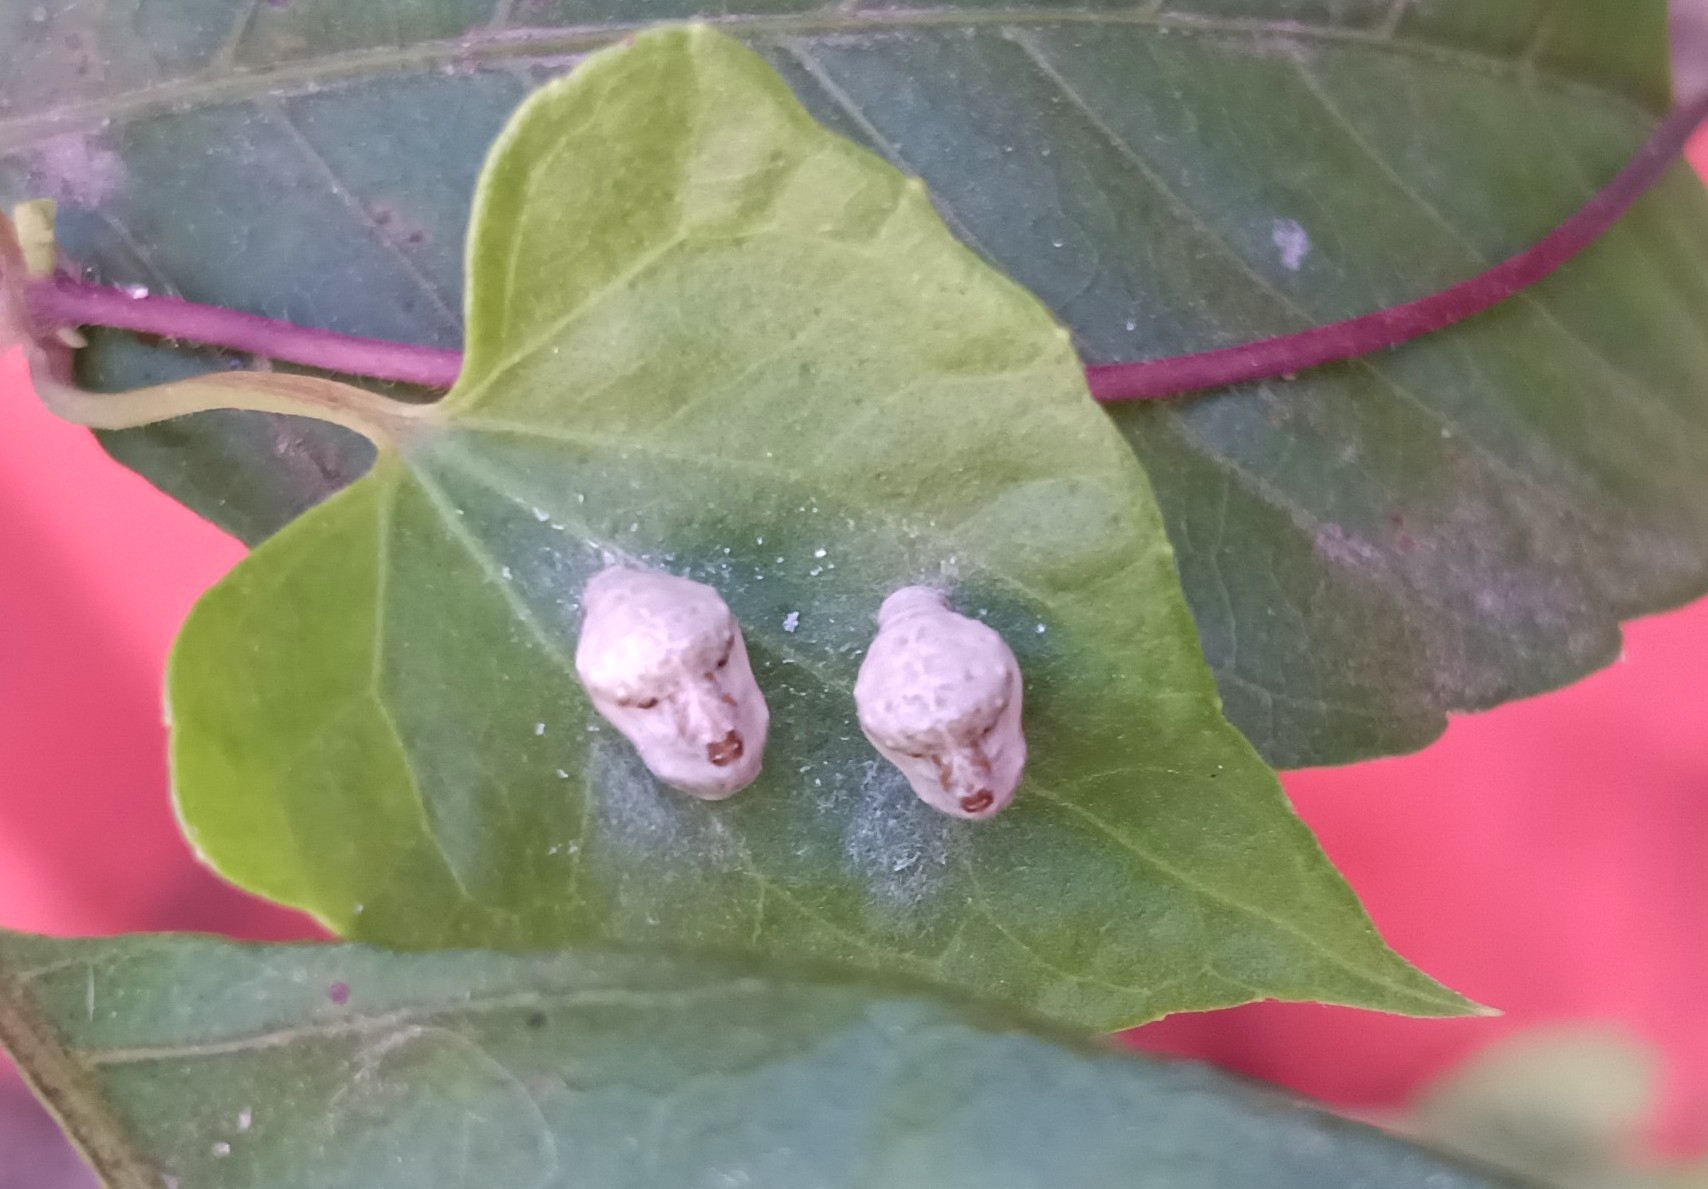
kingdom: Animalia
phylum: Arthropoda
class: Insecta
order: Lepidoptera
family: Lycaenidae
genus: Spalgis
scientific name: Spalgis epius
